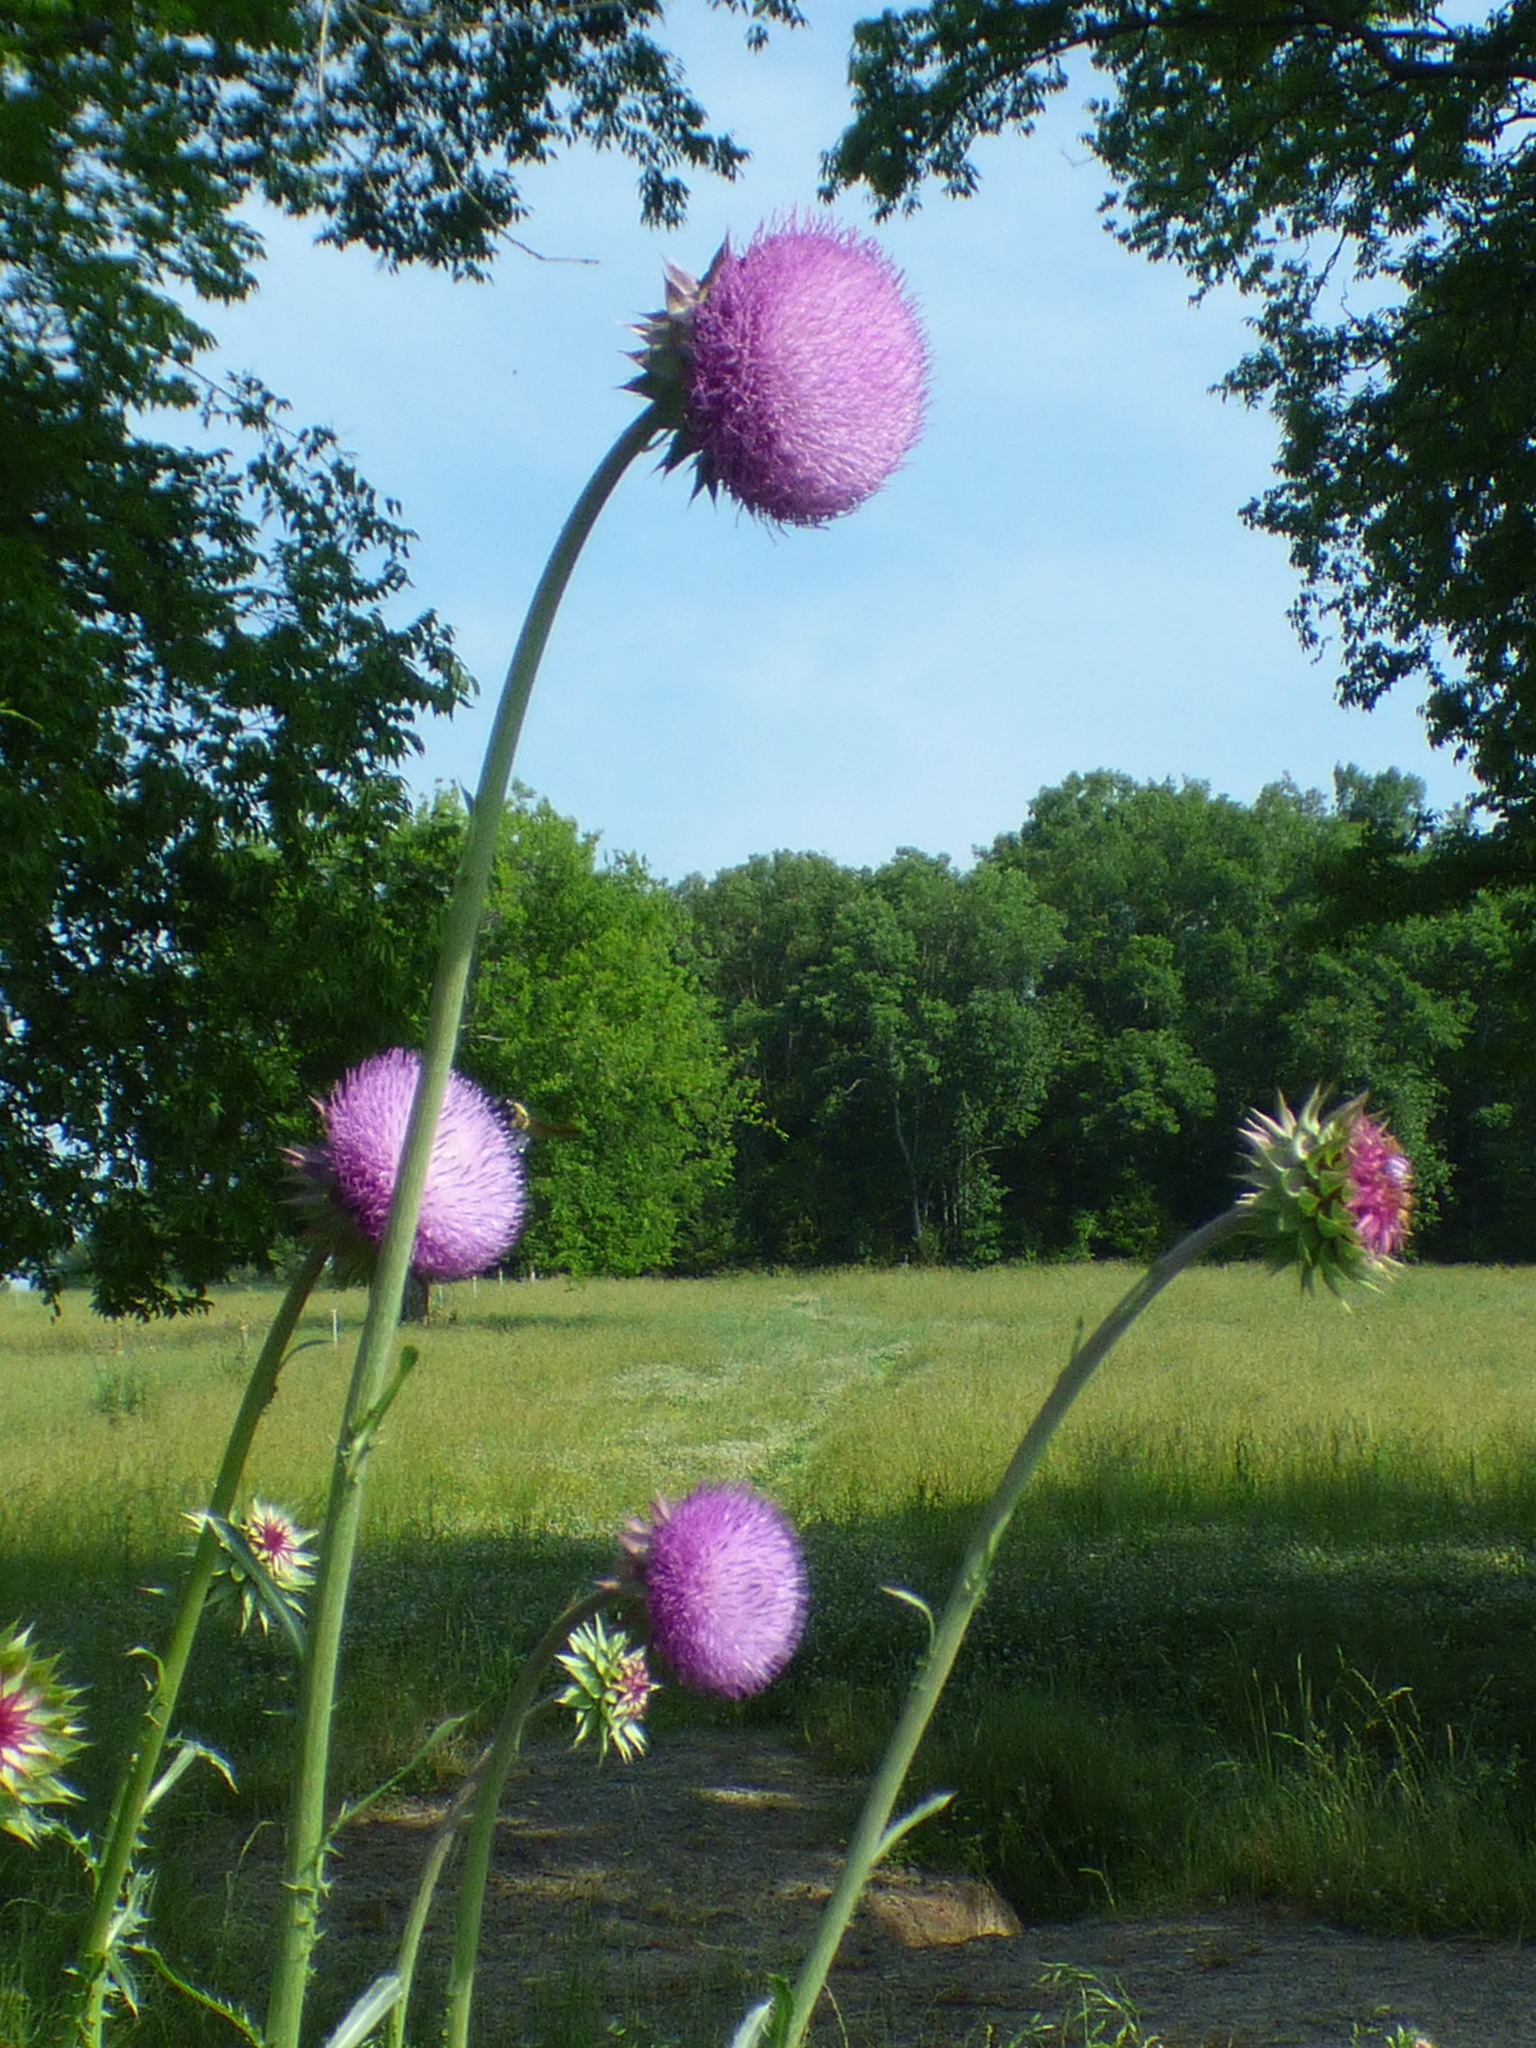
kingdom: Plantae
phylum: Tracheophyta
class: Magnoliopsida
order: Asterales
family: Asteraceae
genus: Carduus
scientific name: Carduus nutans
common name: Musk thistle
